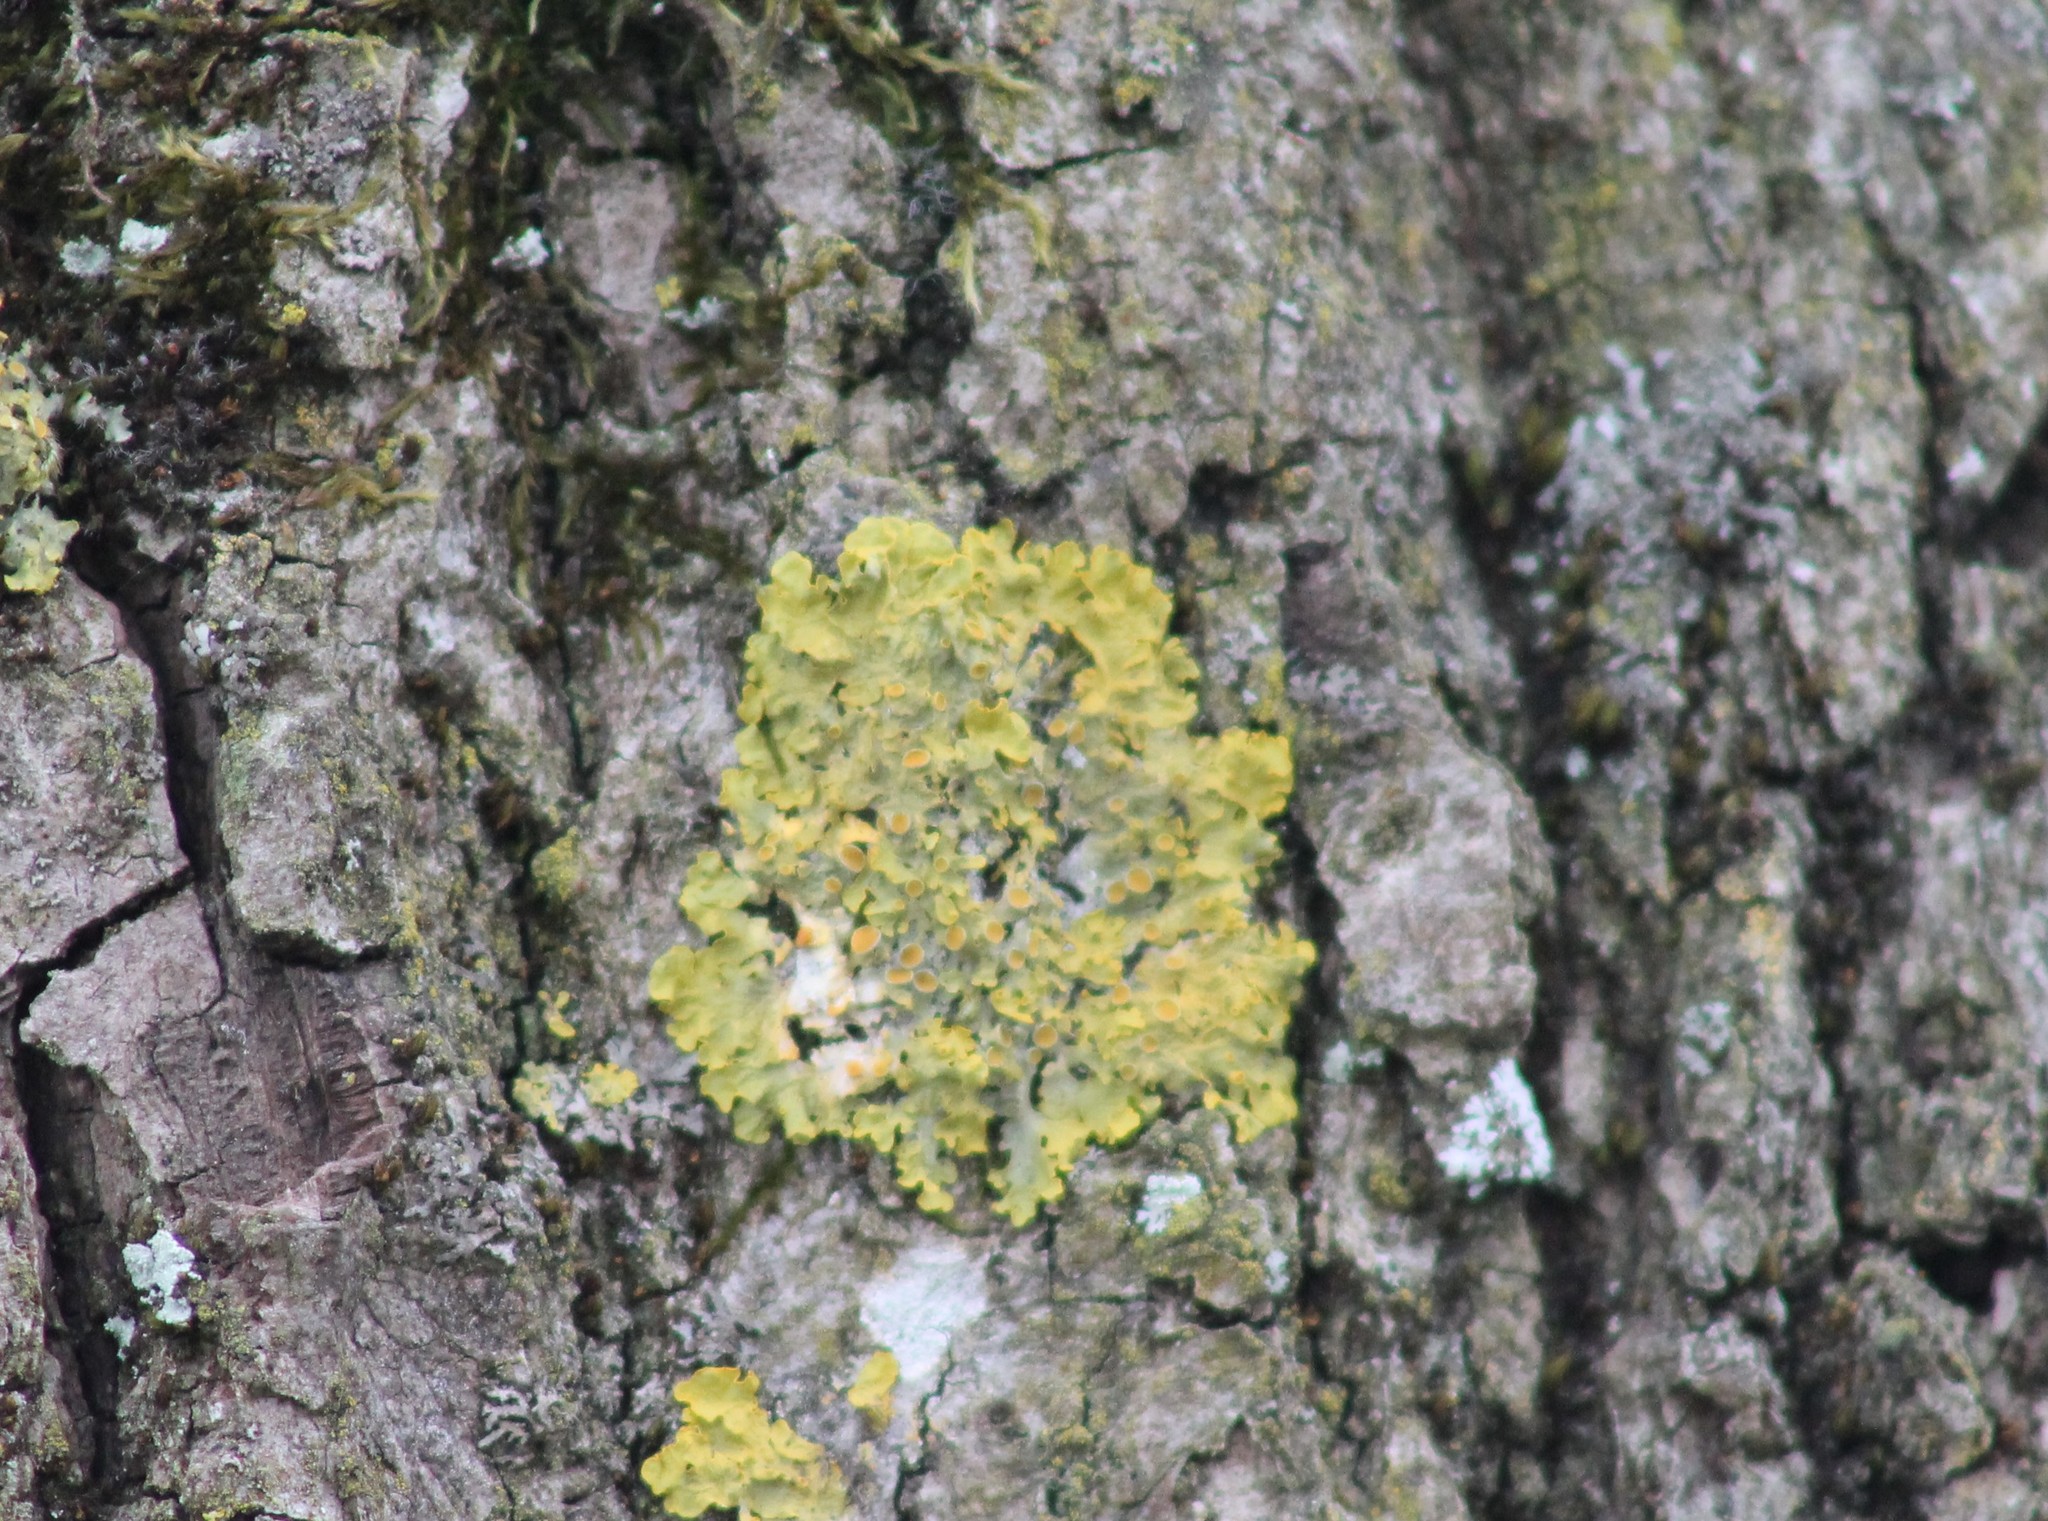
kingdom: Fungi
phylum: Ascomycota
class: Lecanoromycetes
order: Teloschistales
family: Teloschistaceae
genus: Xanthoria
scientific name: Xanthoria parietina
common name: Common orange lichen
